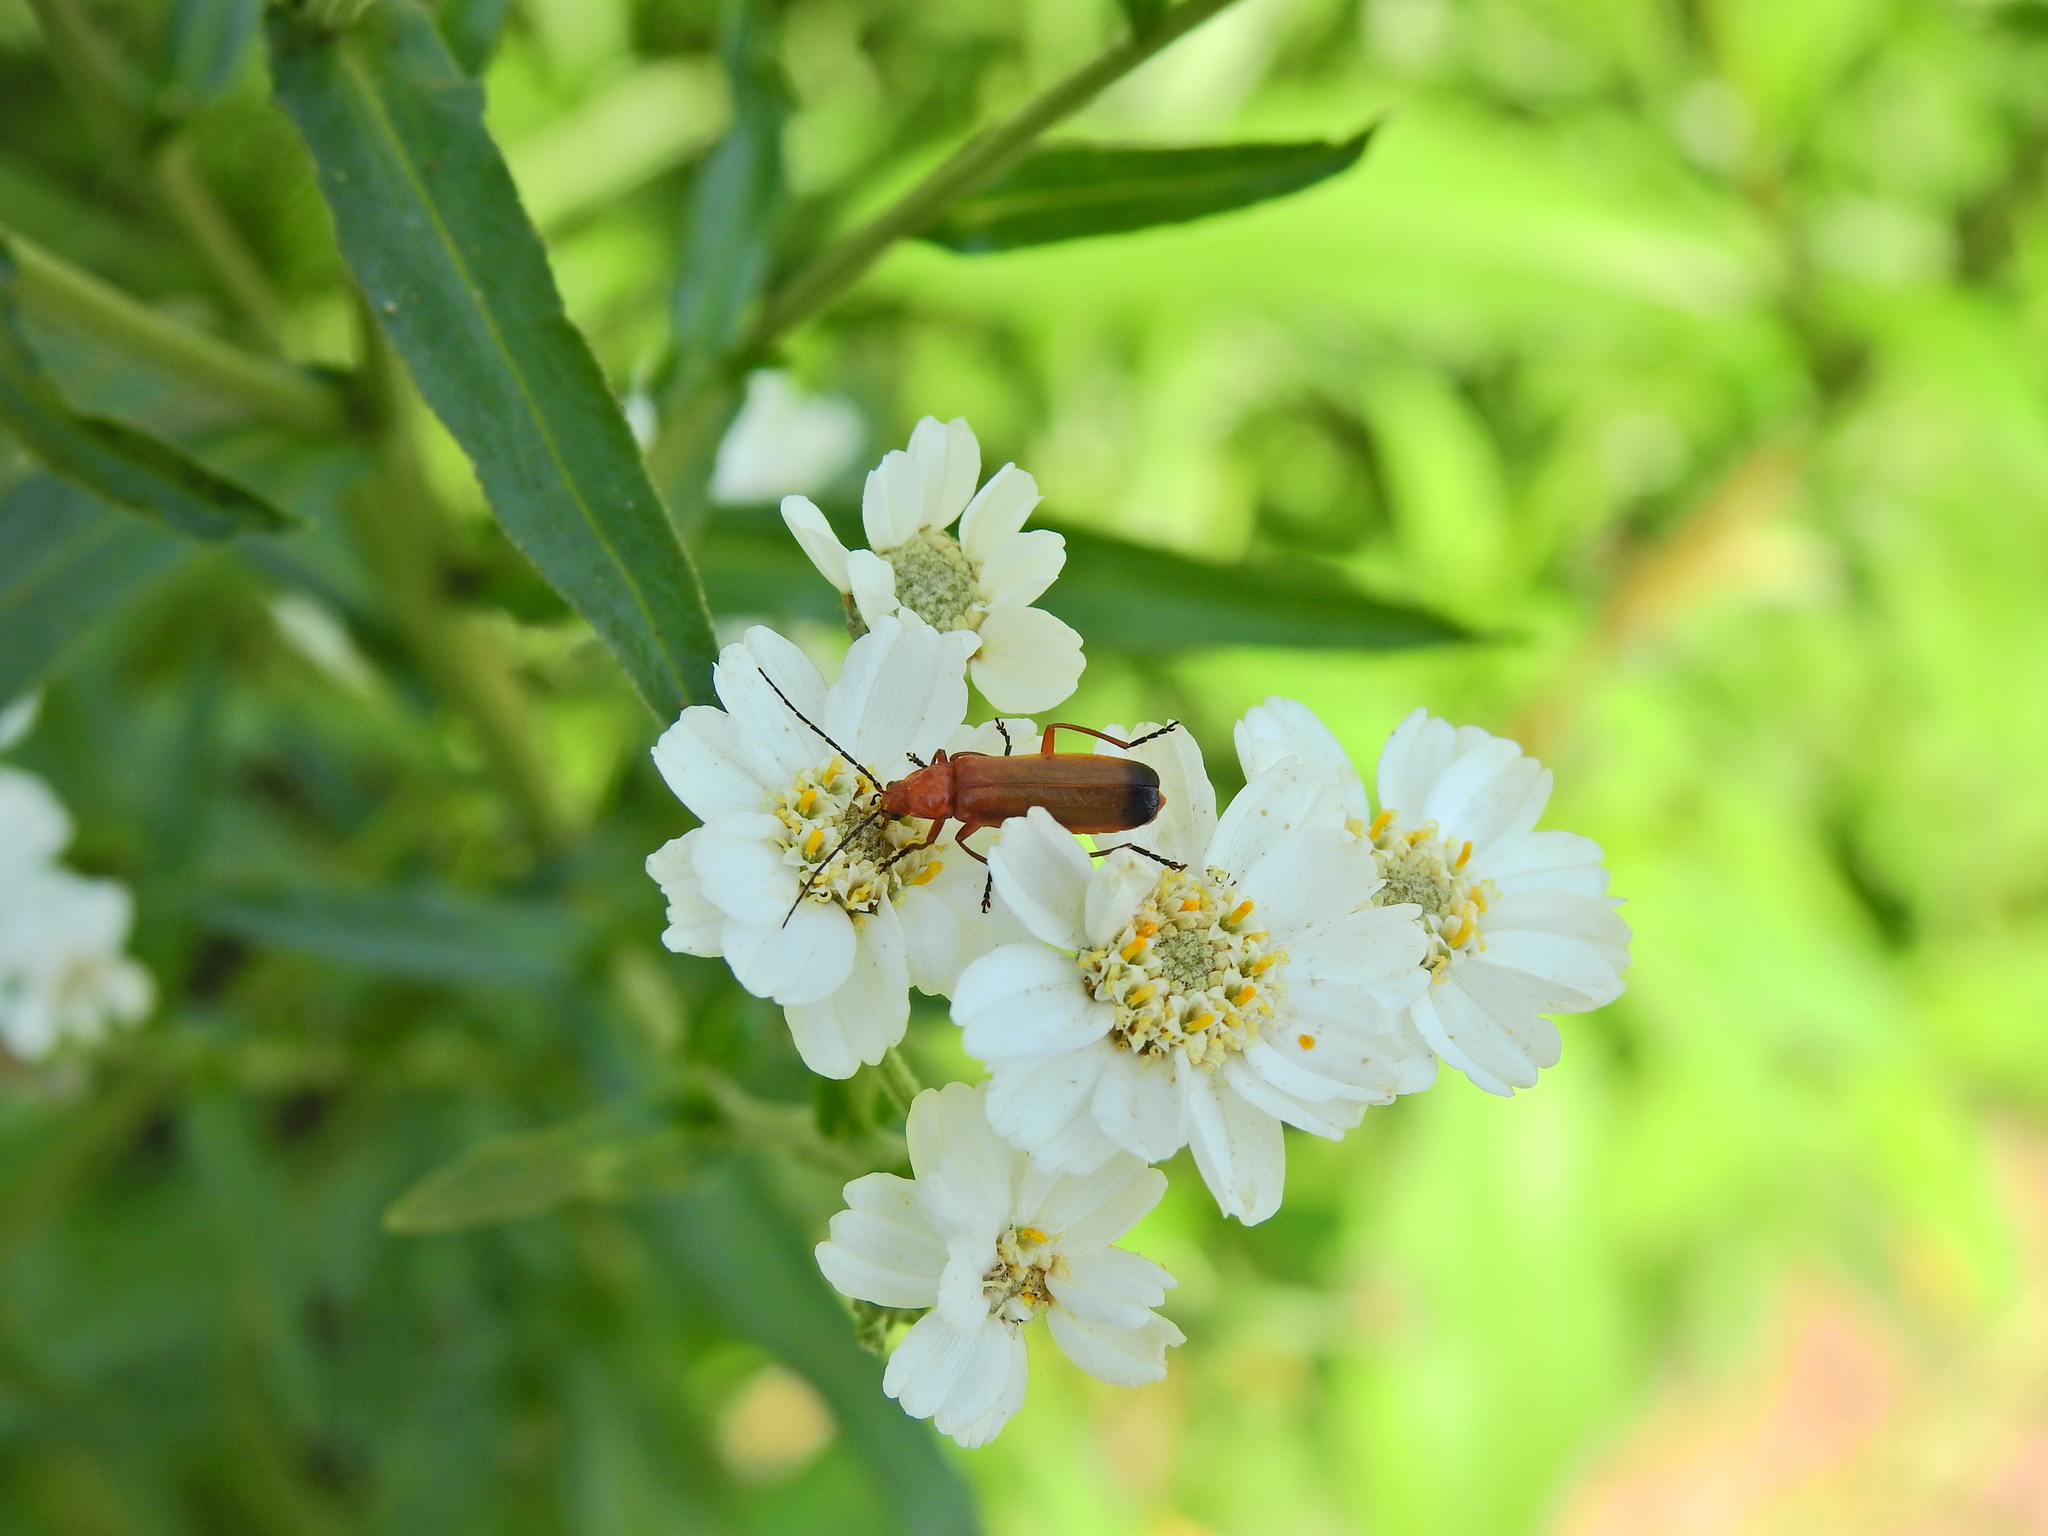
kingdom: Animalia
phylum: Arthropoda
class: Insecta
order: Coleoptera
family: Cantharidae
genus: Rhagonycha
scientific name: Rhagonycha fulva
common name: Common red soldier beetle
